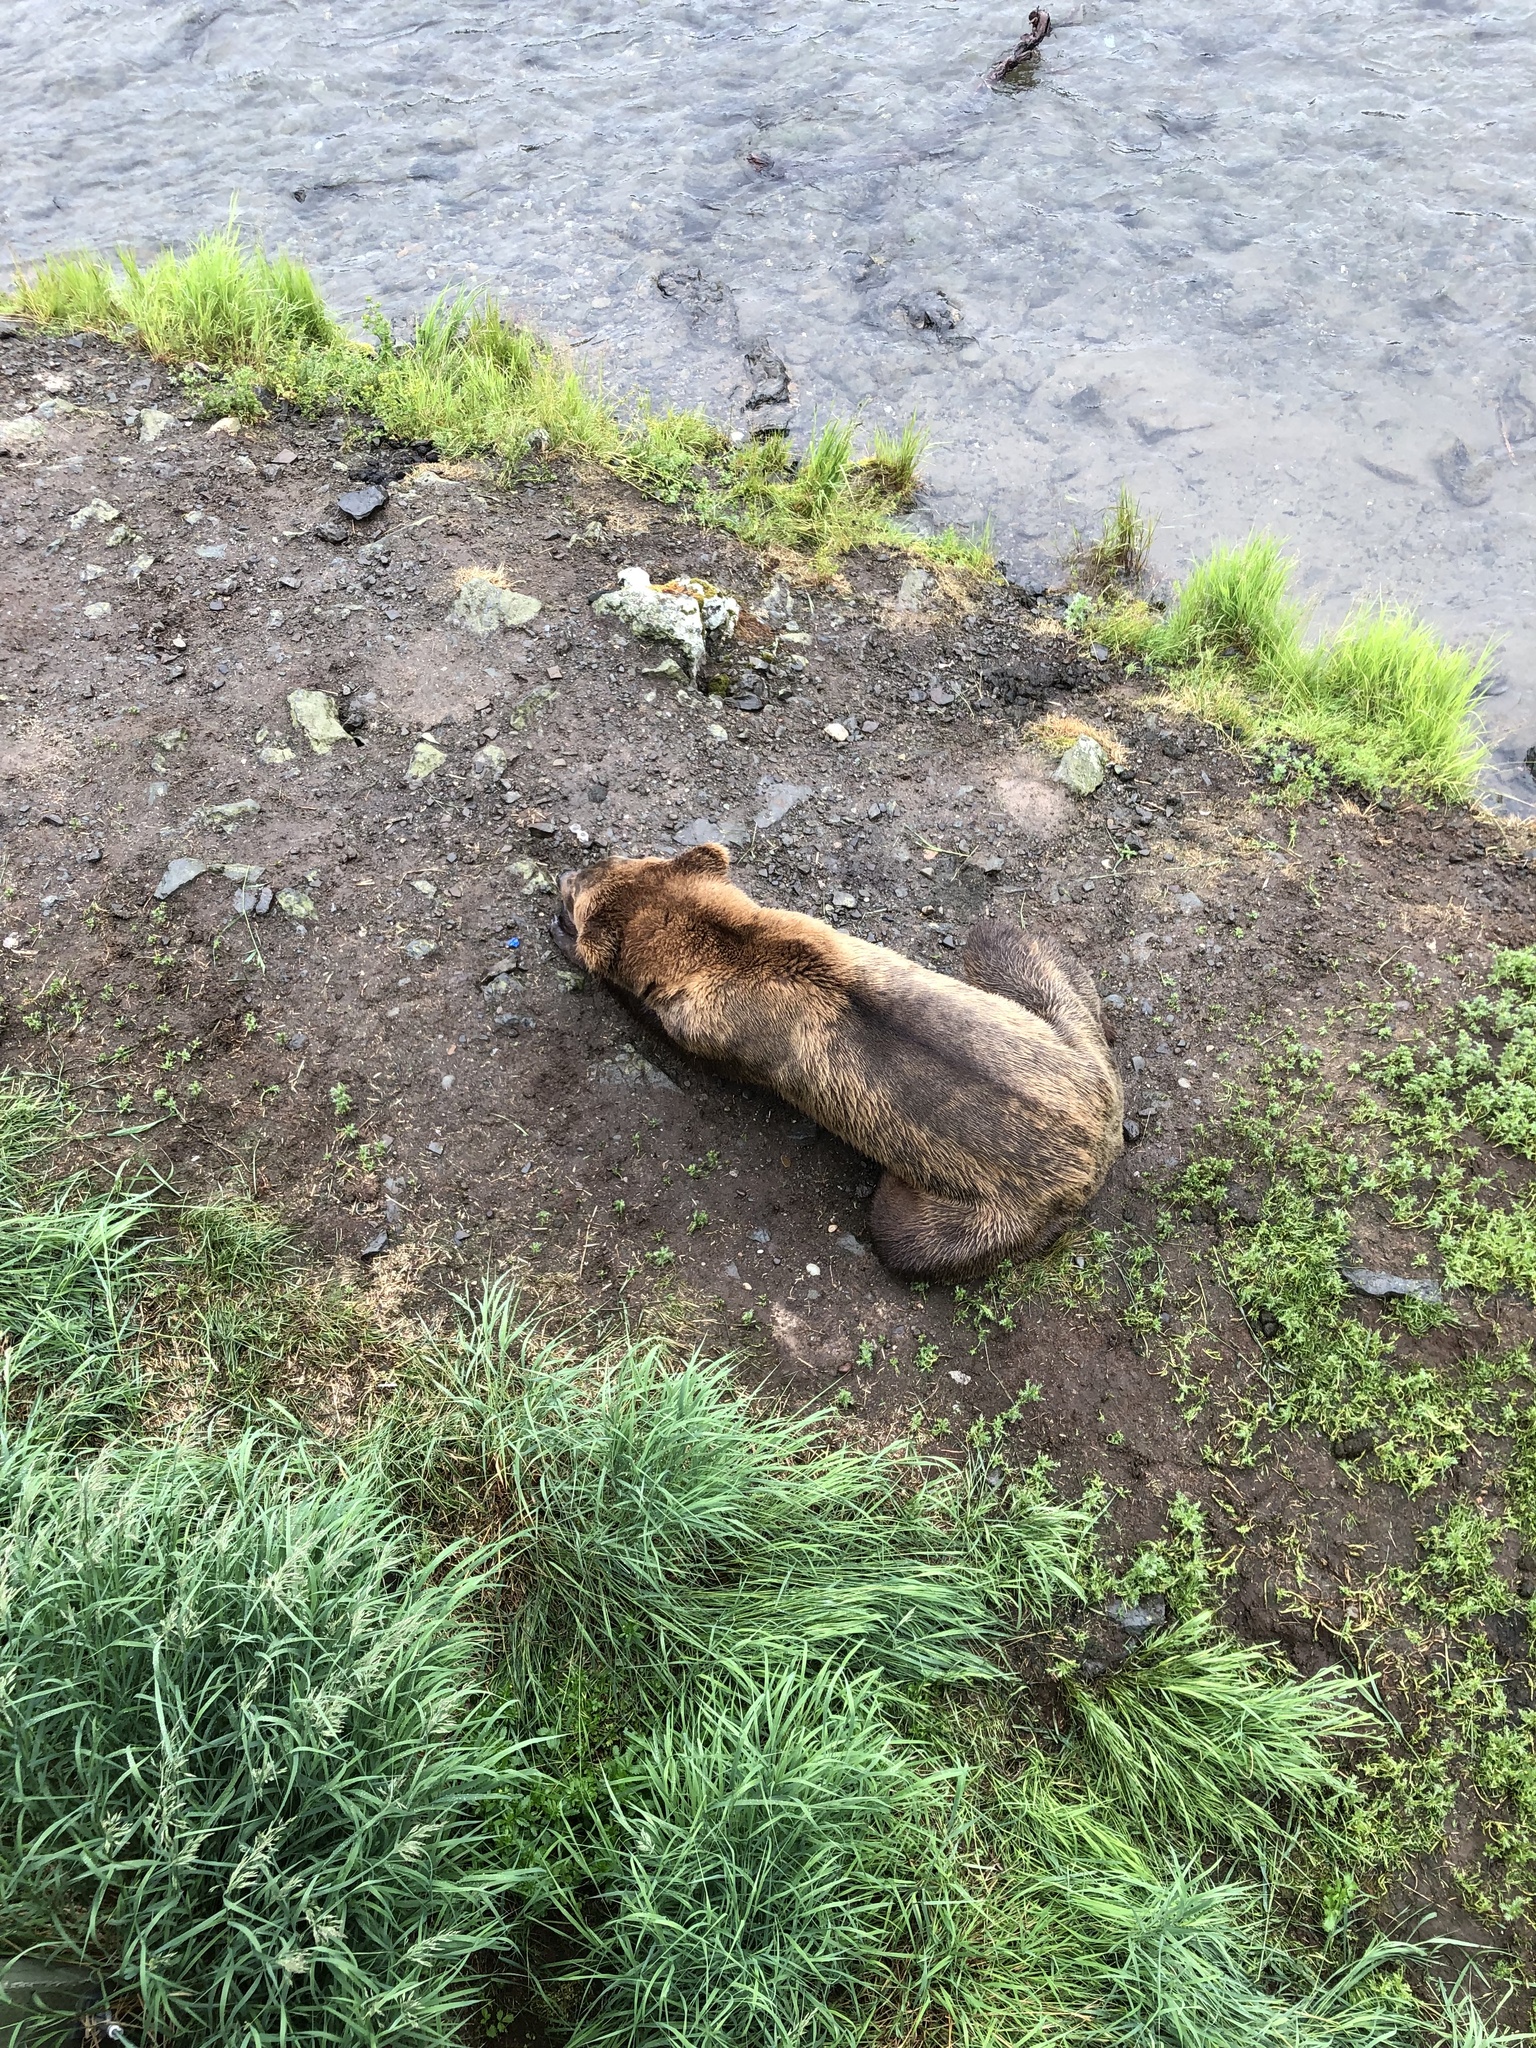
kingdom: Animalia
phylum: Chordata
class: Mammalia
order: Carnivora
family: Ursidae
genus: Ursus
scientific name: Ursus arctos
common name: Brown bear
